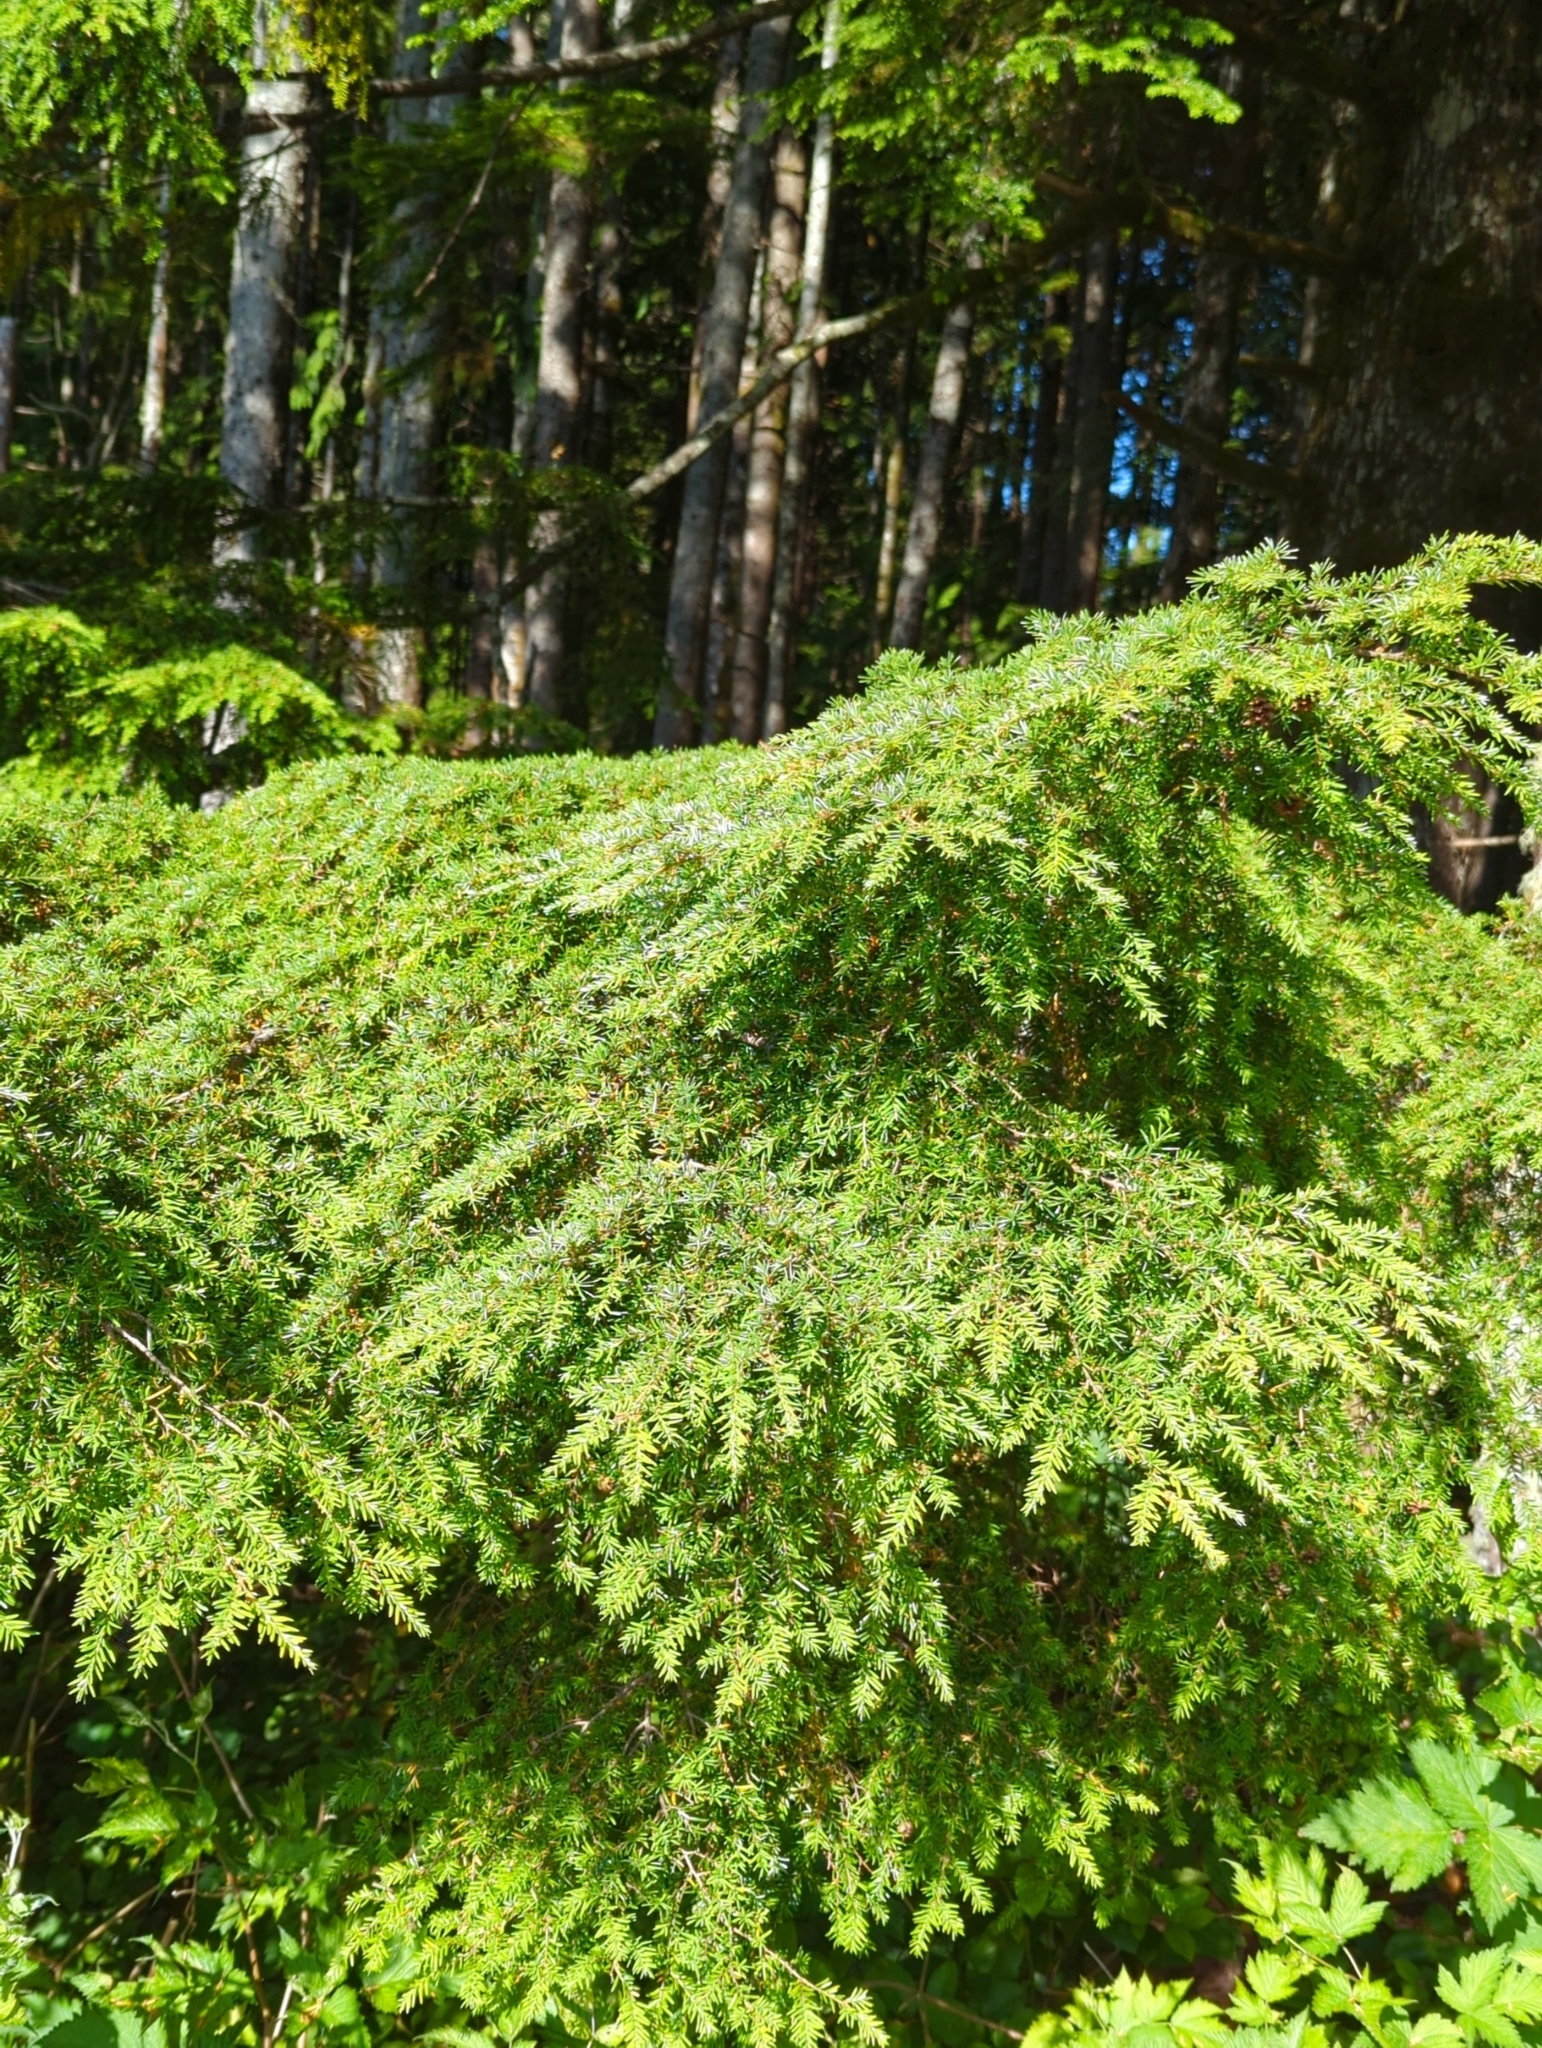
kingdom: Plantae
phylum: Tracheophyta
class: Pinopsida
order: Pinales
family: Pinaceae
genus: Tsuga
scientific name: Tsuga heterophylla
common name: Western hemlock
